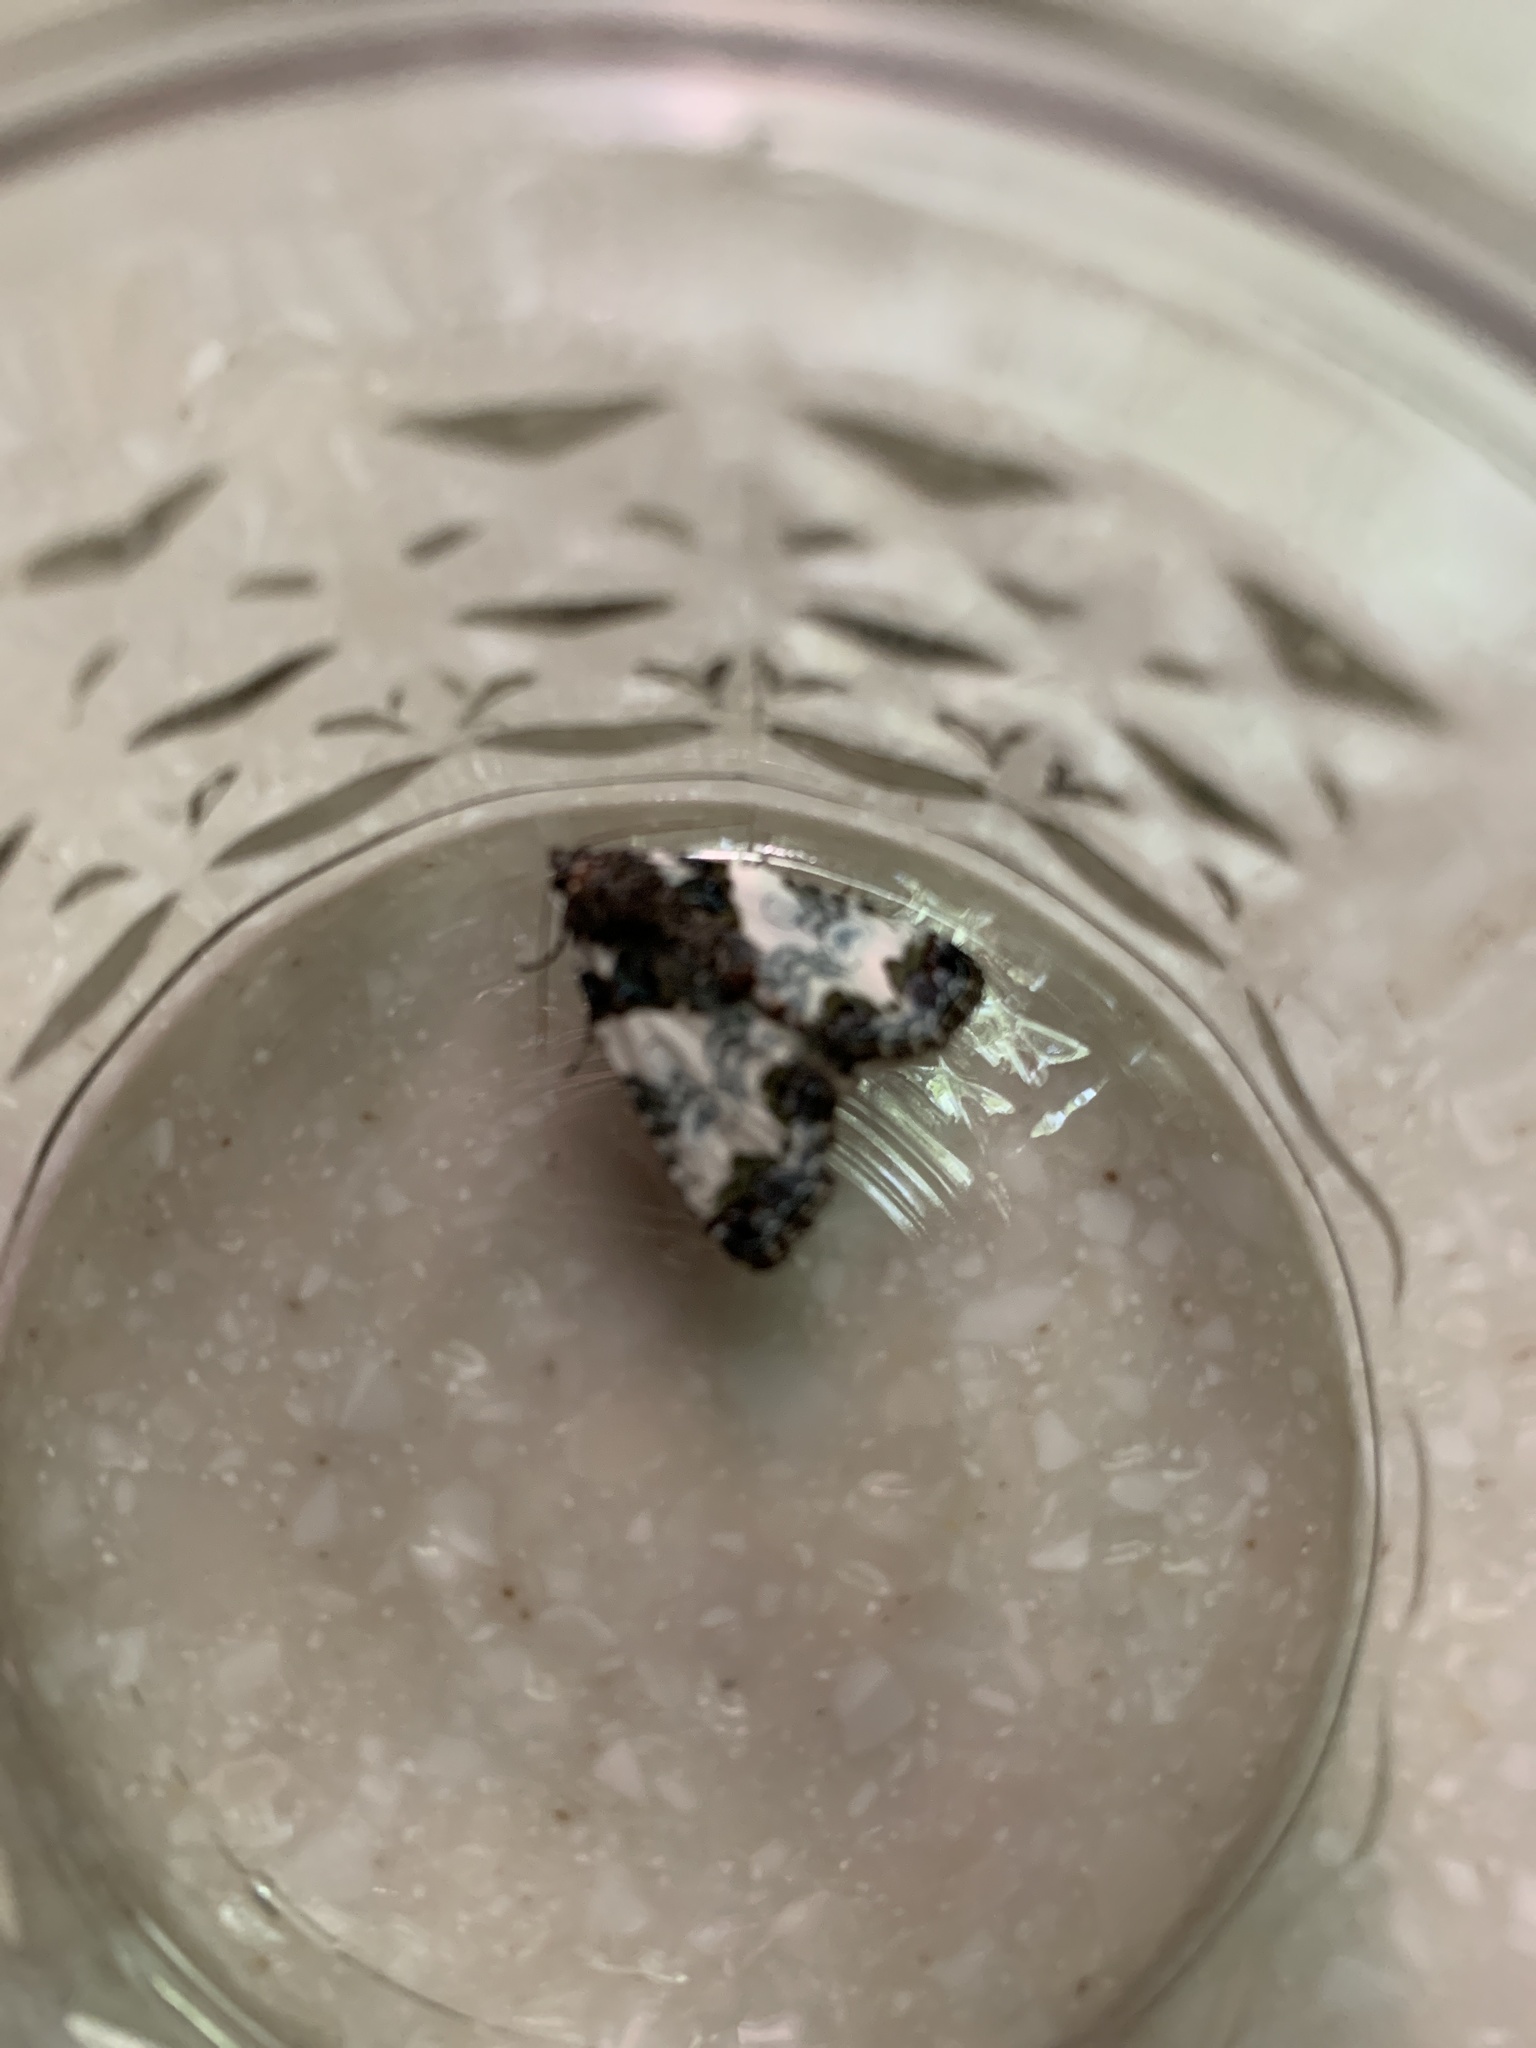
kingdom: Animalia
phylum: Arthropoda
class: Insecta
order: Lepidoptera
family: Noctuidae
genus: Cerma
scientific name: Cerma cerintha
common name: Tufted bird-dropping moth
